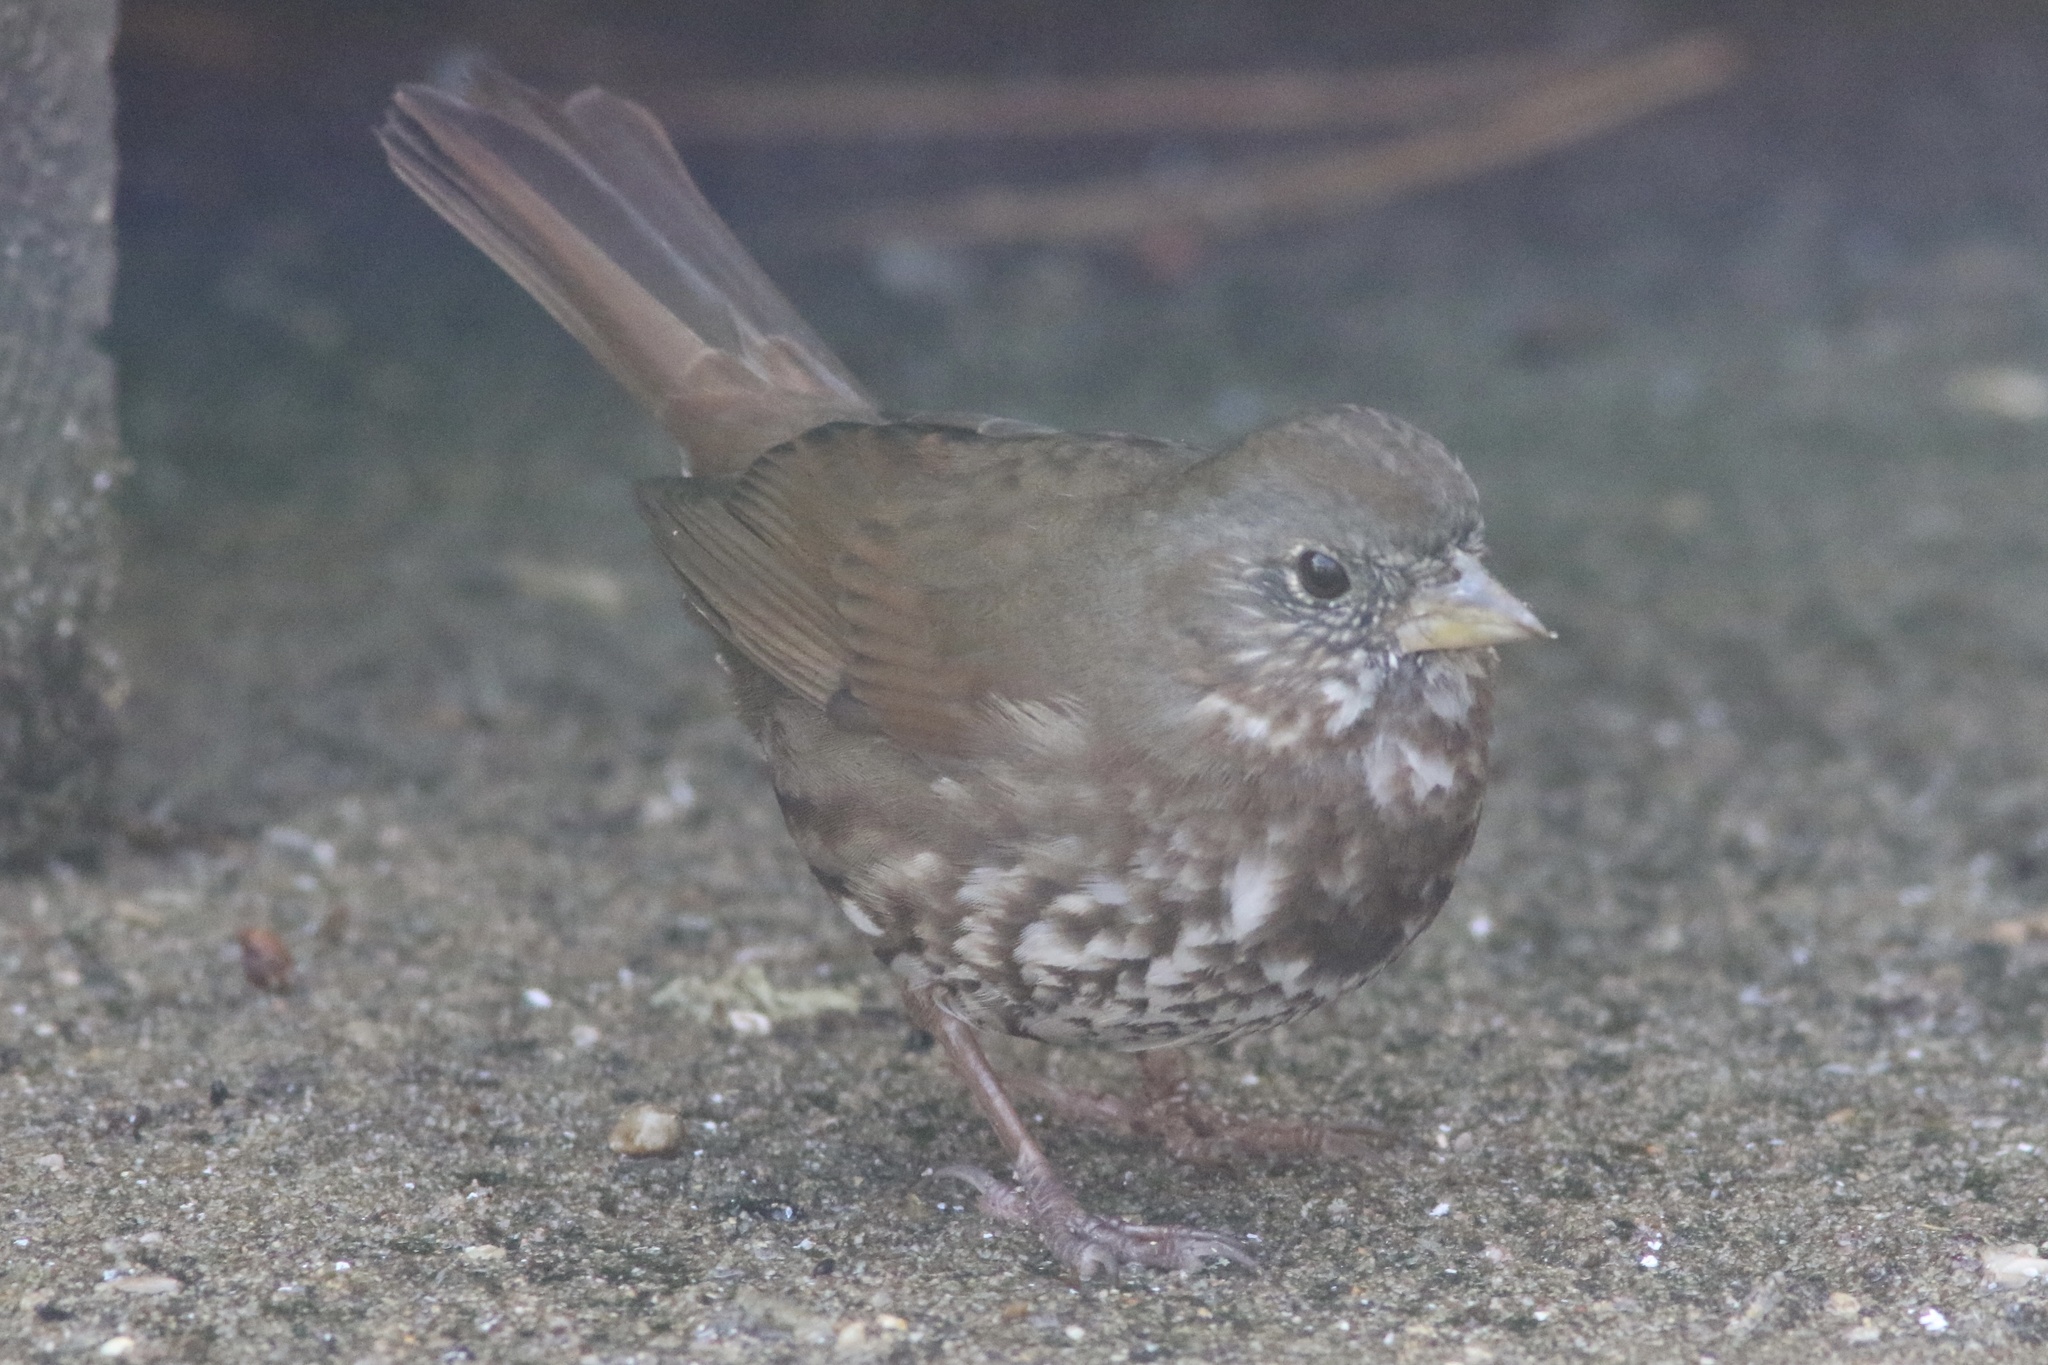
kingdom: Animalia
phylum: Chordata
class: Aves
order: Passeriformes
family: Passerellidae
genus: Passerella
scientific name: Passerella iliaca
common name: Fox sparrow
